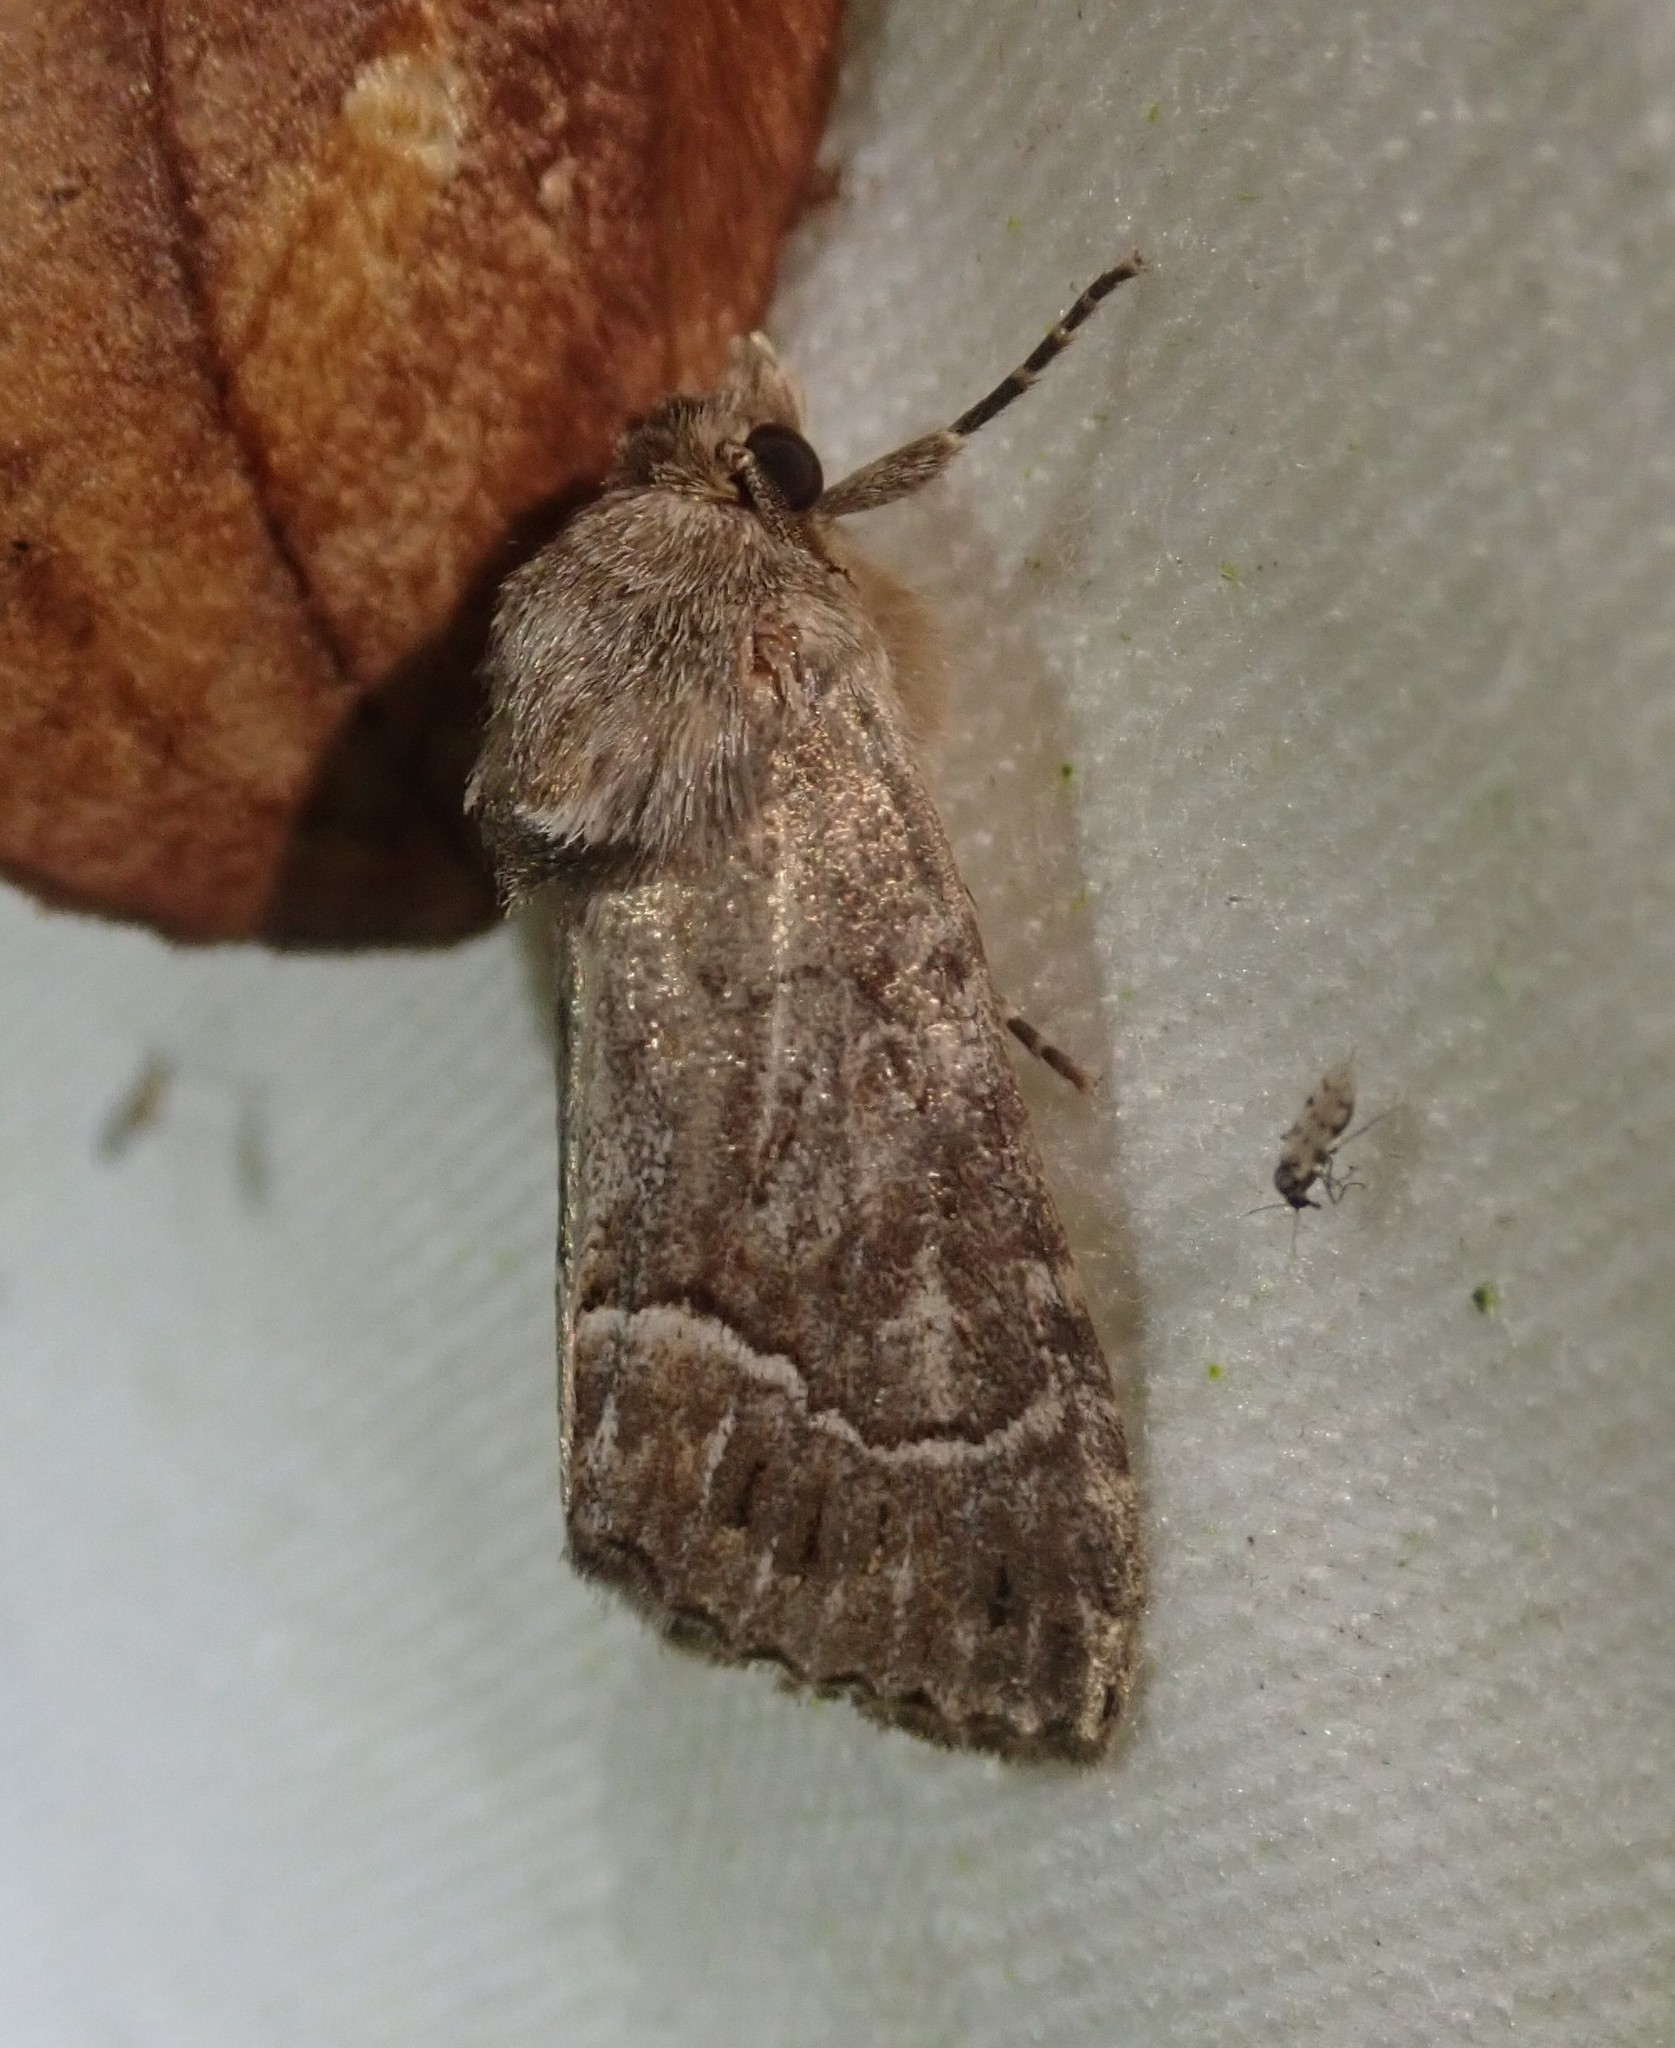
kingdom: Animalia
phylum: Arthropoda
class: Insecta
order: Lepidoptera
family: Noctuidae
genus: Thalpophila
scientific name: Thalpophila matura
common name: Straw underwing
